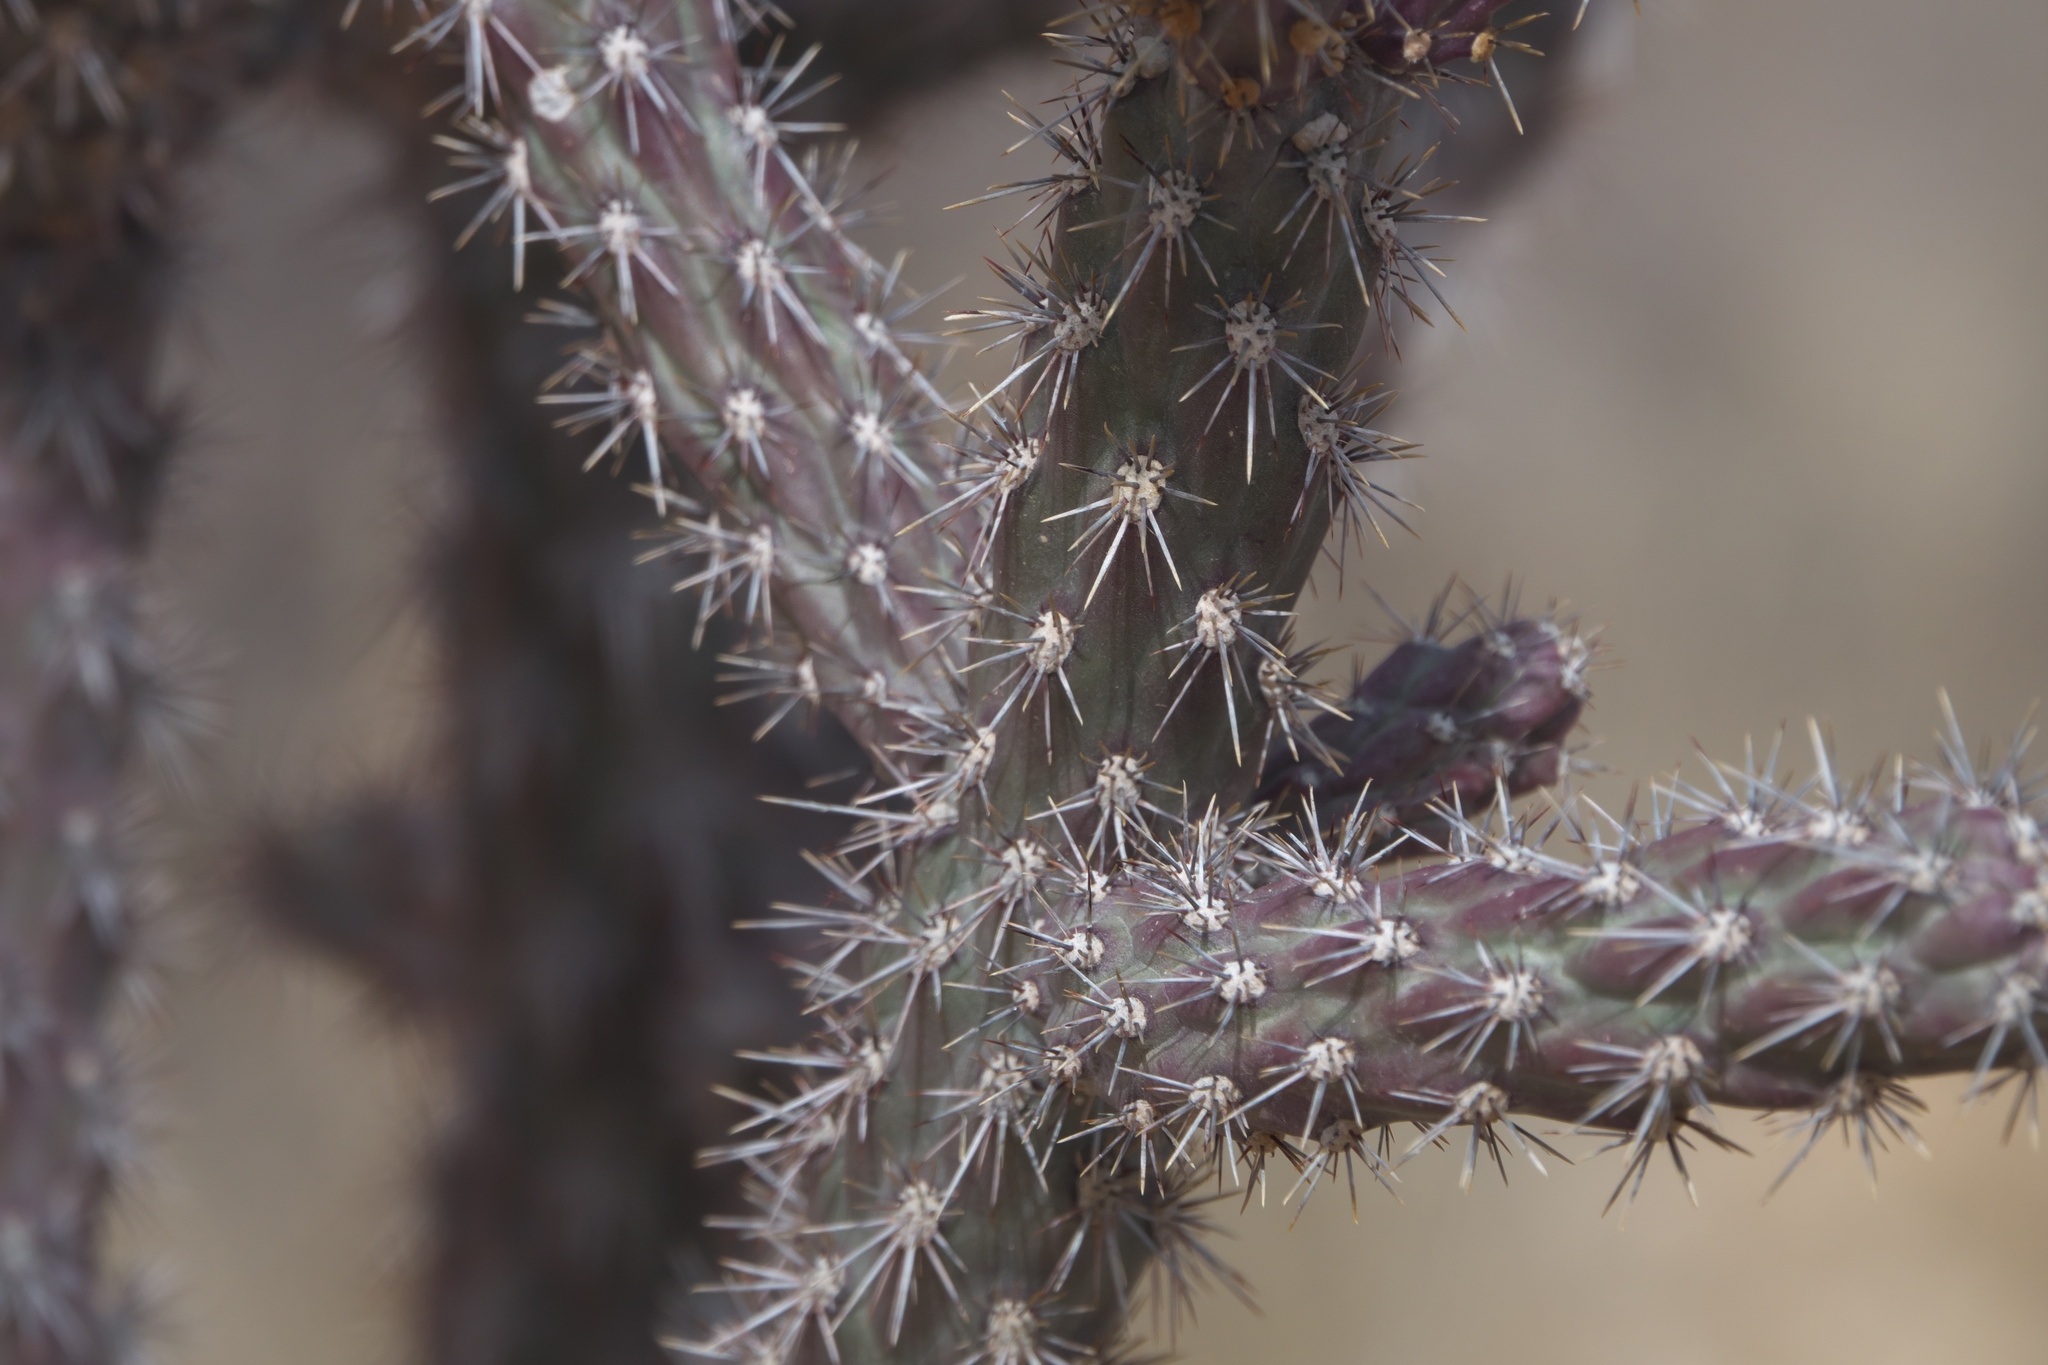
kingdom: Plantae
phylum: Tracheophyta
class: Magnoliopsida
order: Caryophyllales
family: Cactaceae
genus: Cylindropuntia
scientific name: Cylindropuntia imbricata
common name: Candelabrum cactus
